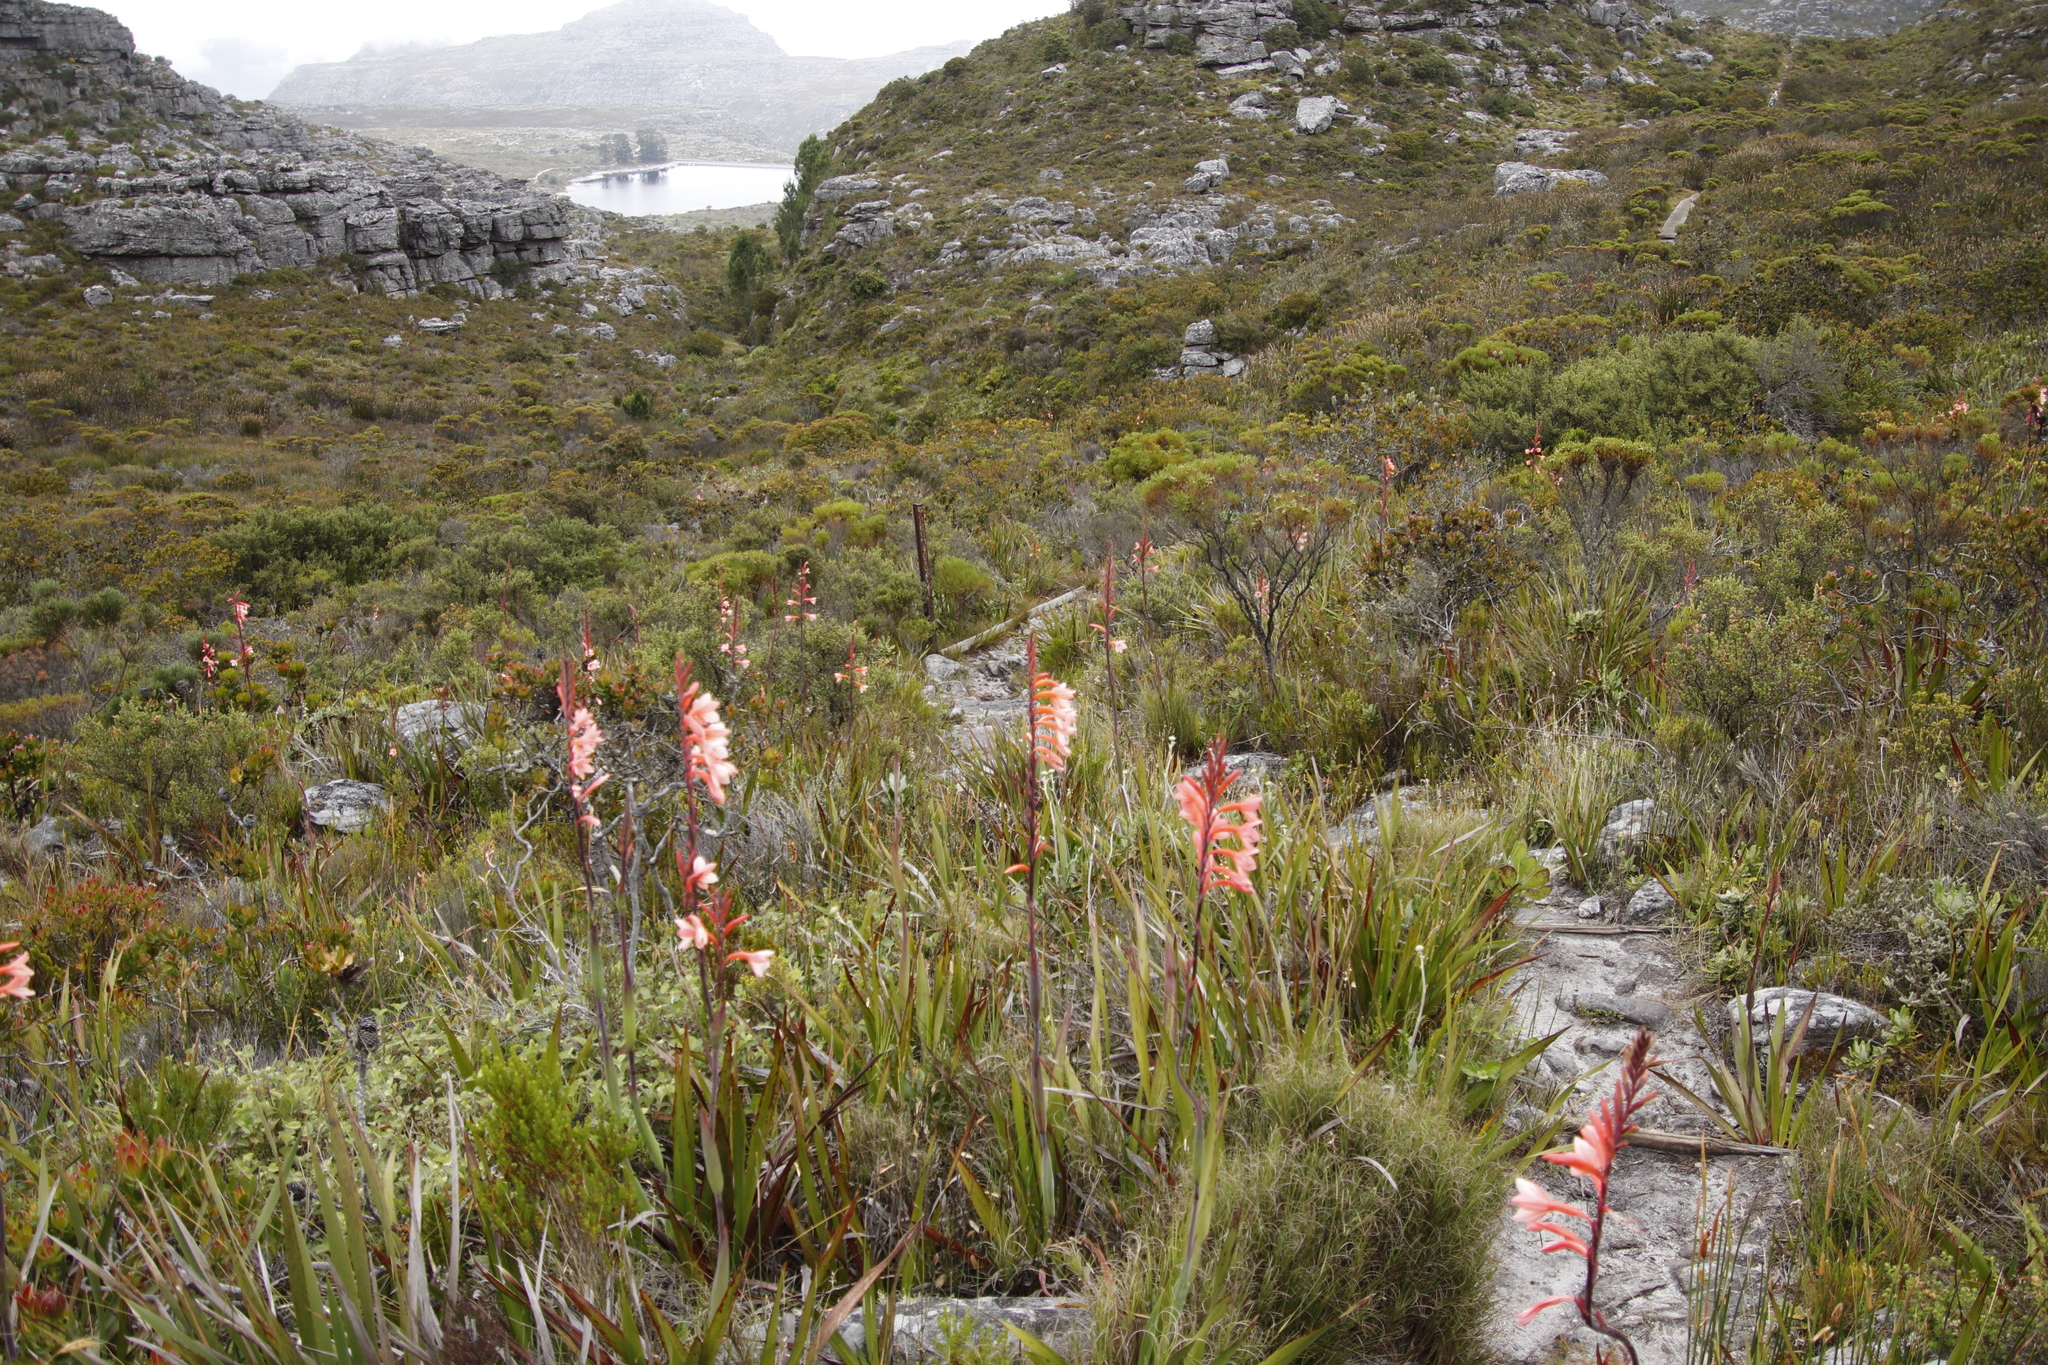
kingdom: Plantae
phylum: Tracheophyta
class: Liliopsida
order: Asparagales
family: Iridaceae
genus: Watsonia
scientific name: Watsonia tabularis
